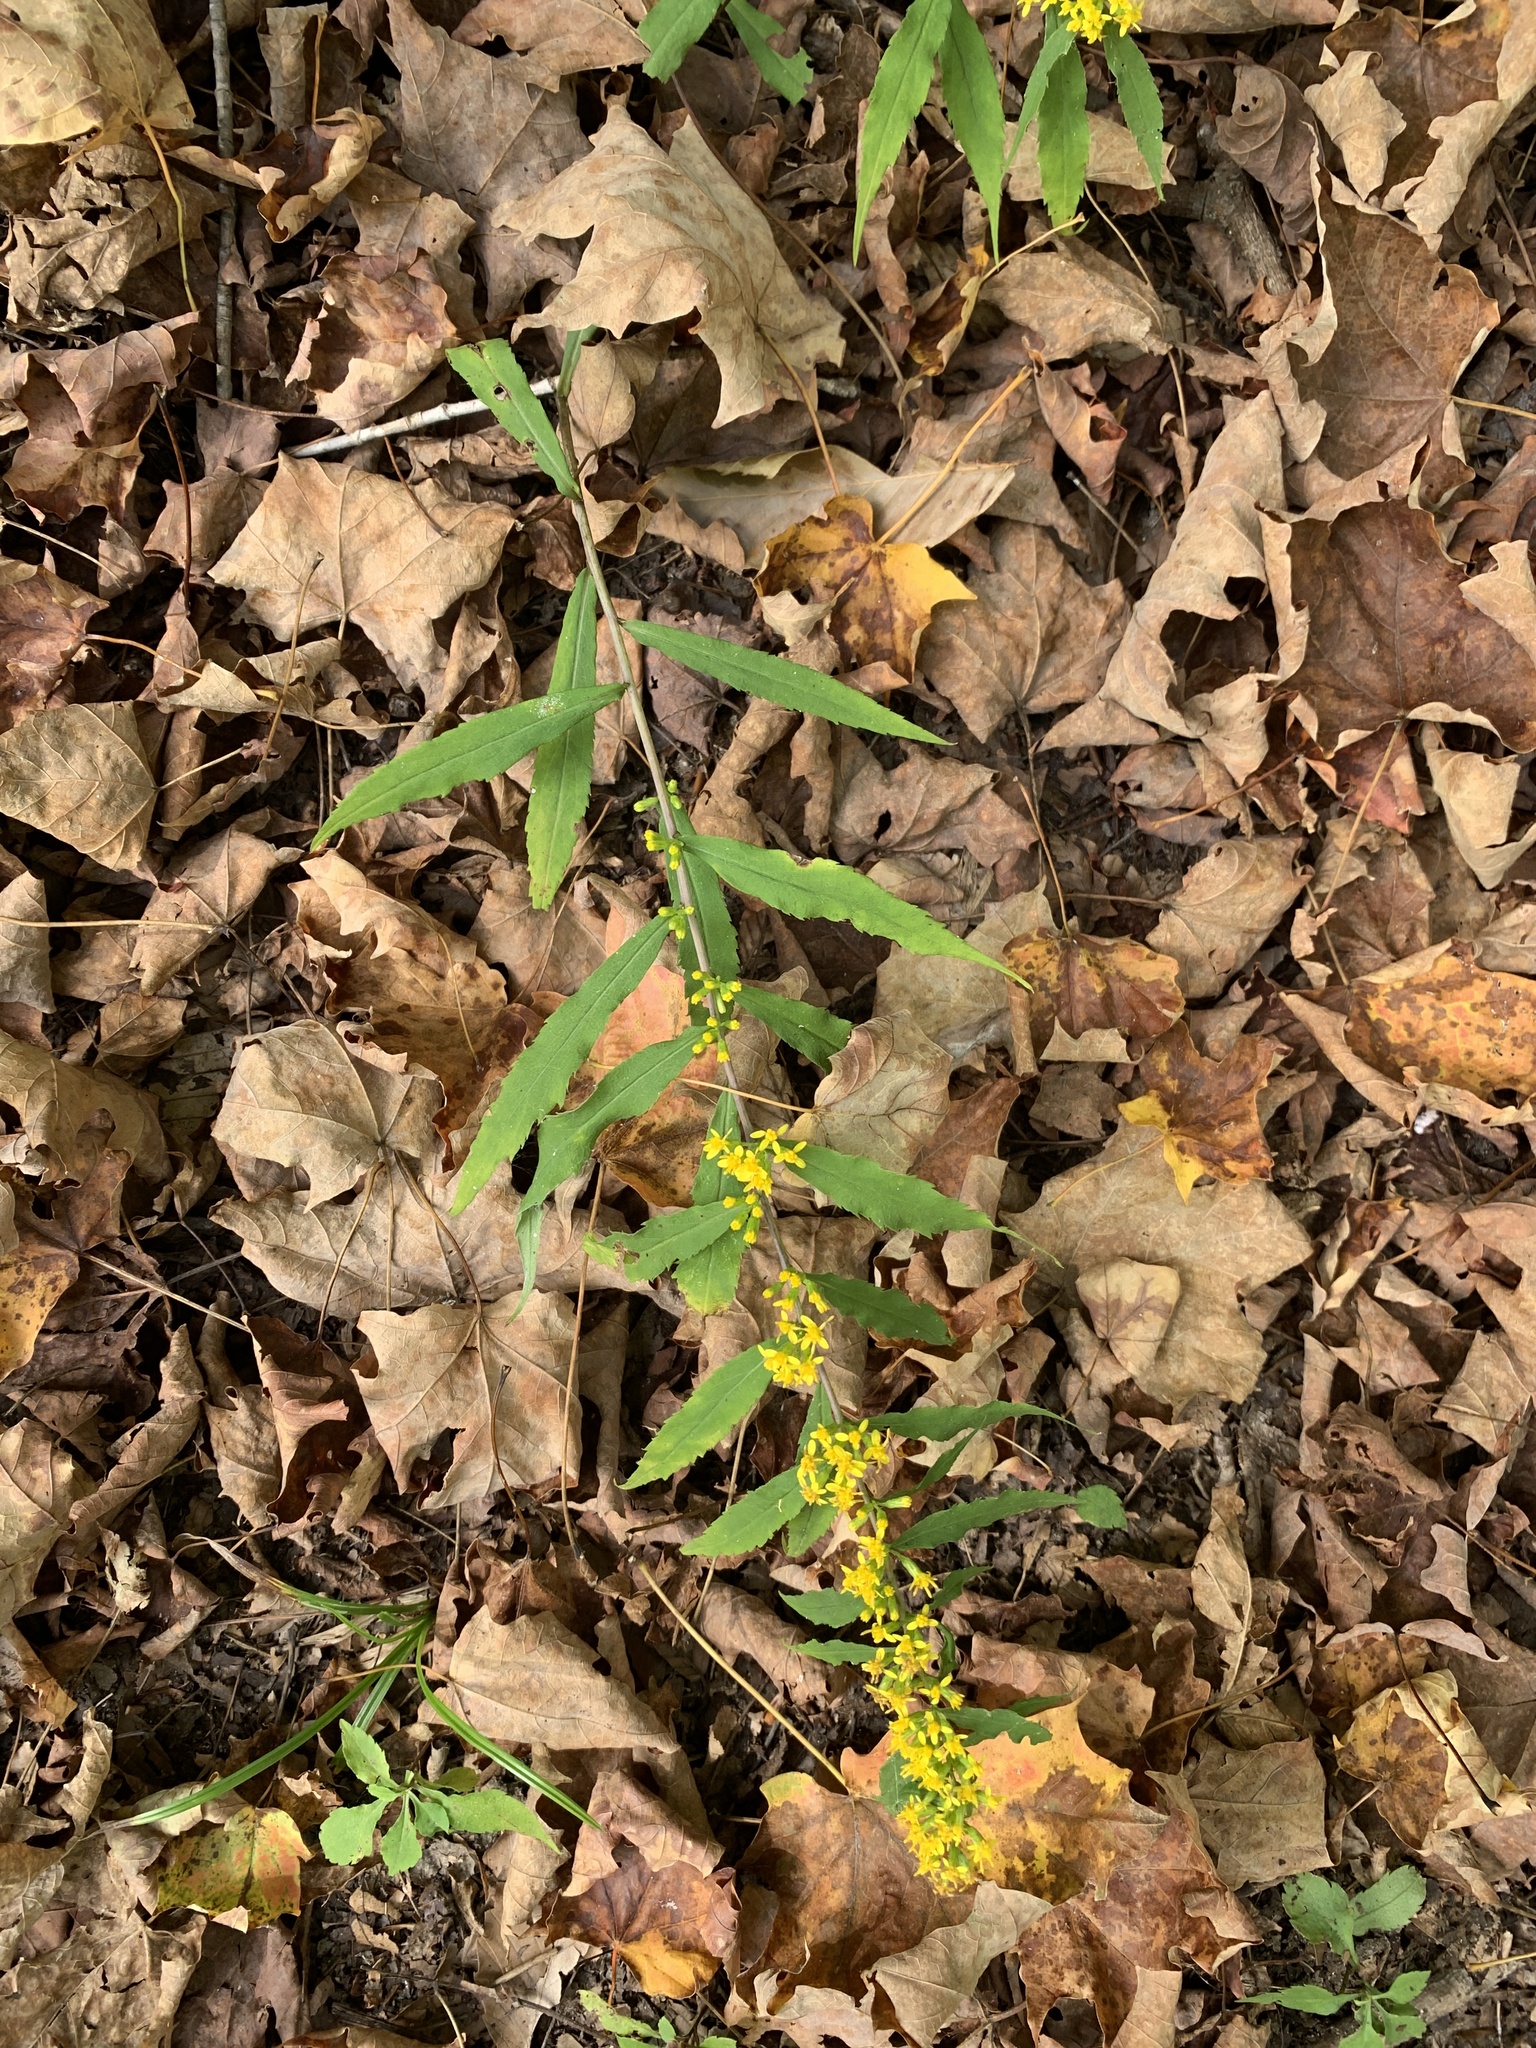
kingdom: Plantae
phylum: Tracheophyta
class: Magnoliopsida
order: Asterales
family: Asteraceae
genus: Solidago
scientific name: Solidago caesia
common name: Woodland goldenrod
